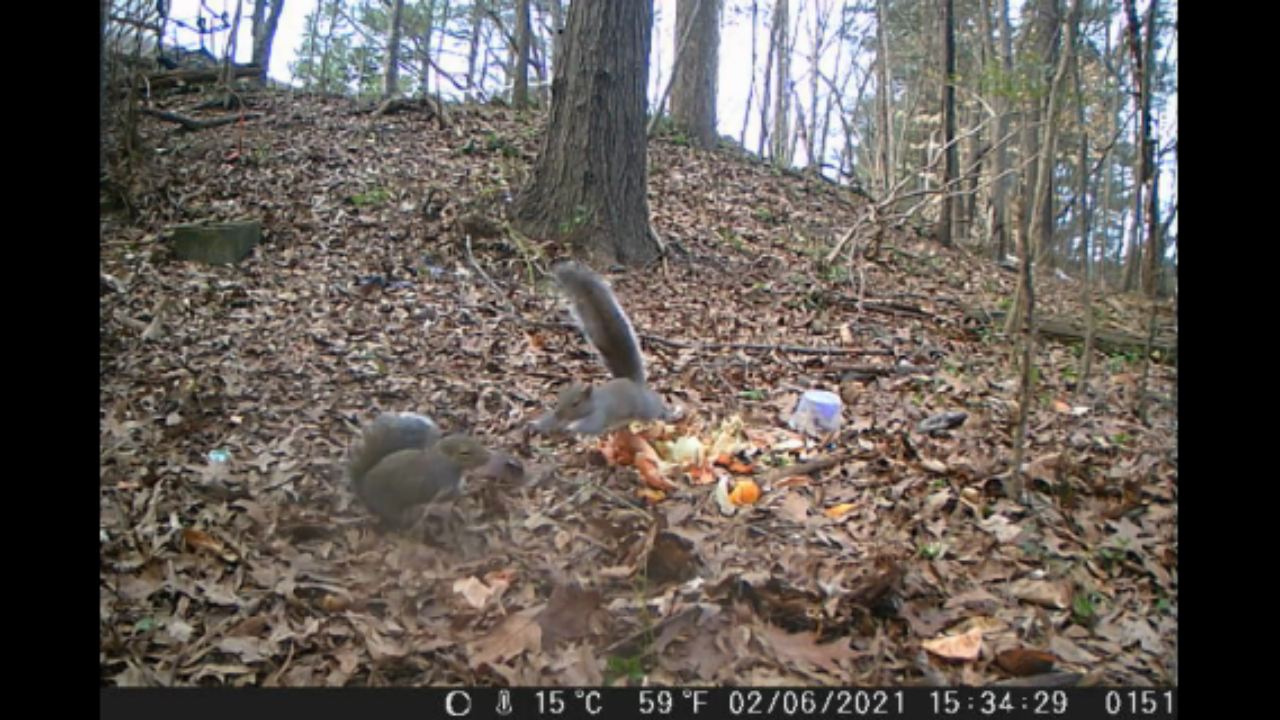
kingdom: Animalia
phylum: Chordata
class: Mammalia
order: Rodentia
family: Sciuridae
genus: Sciurus
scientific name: Sciurus carolinensis
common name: Eastern gray squirrel
